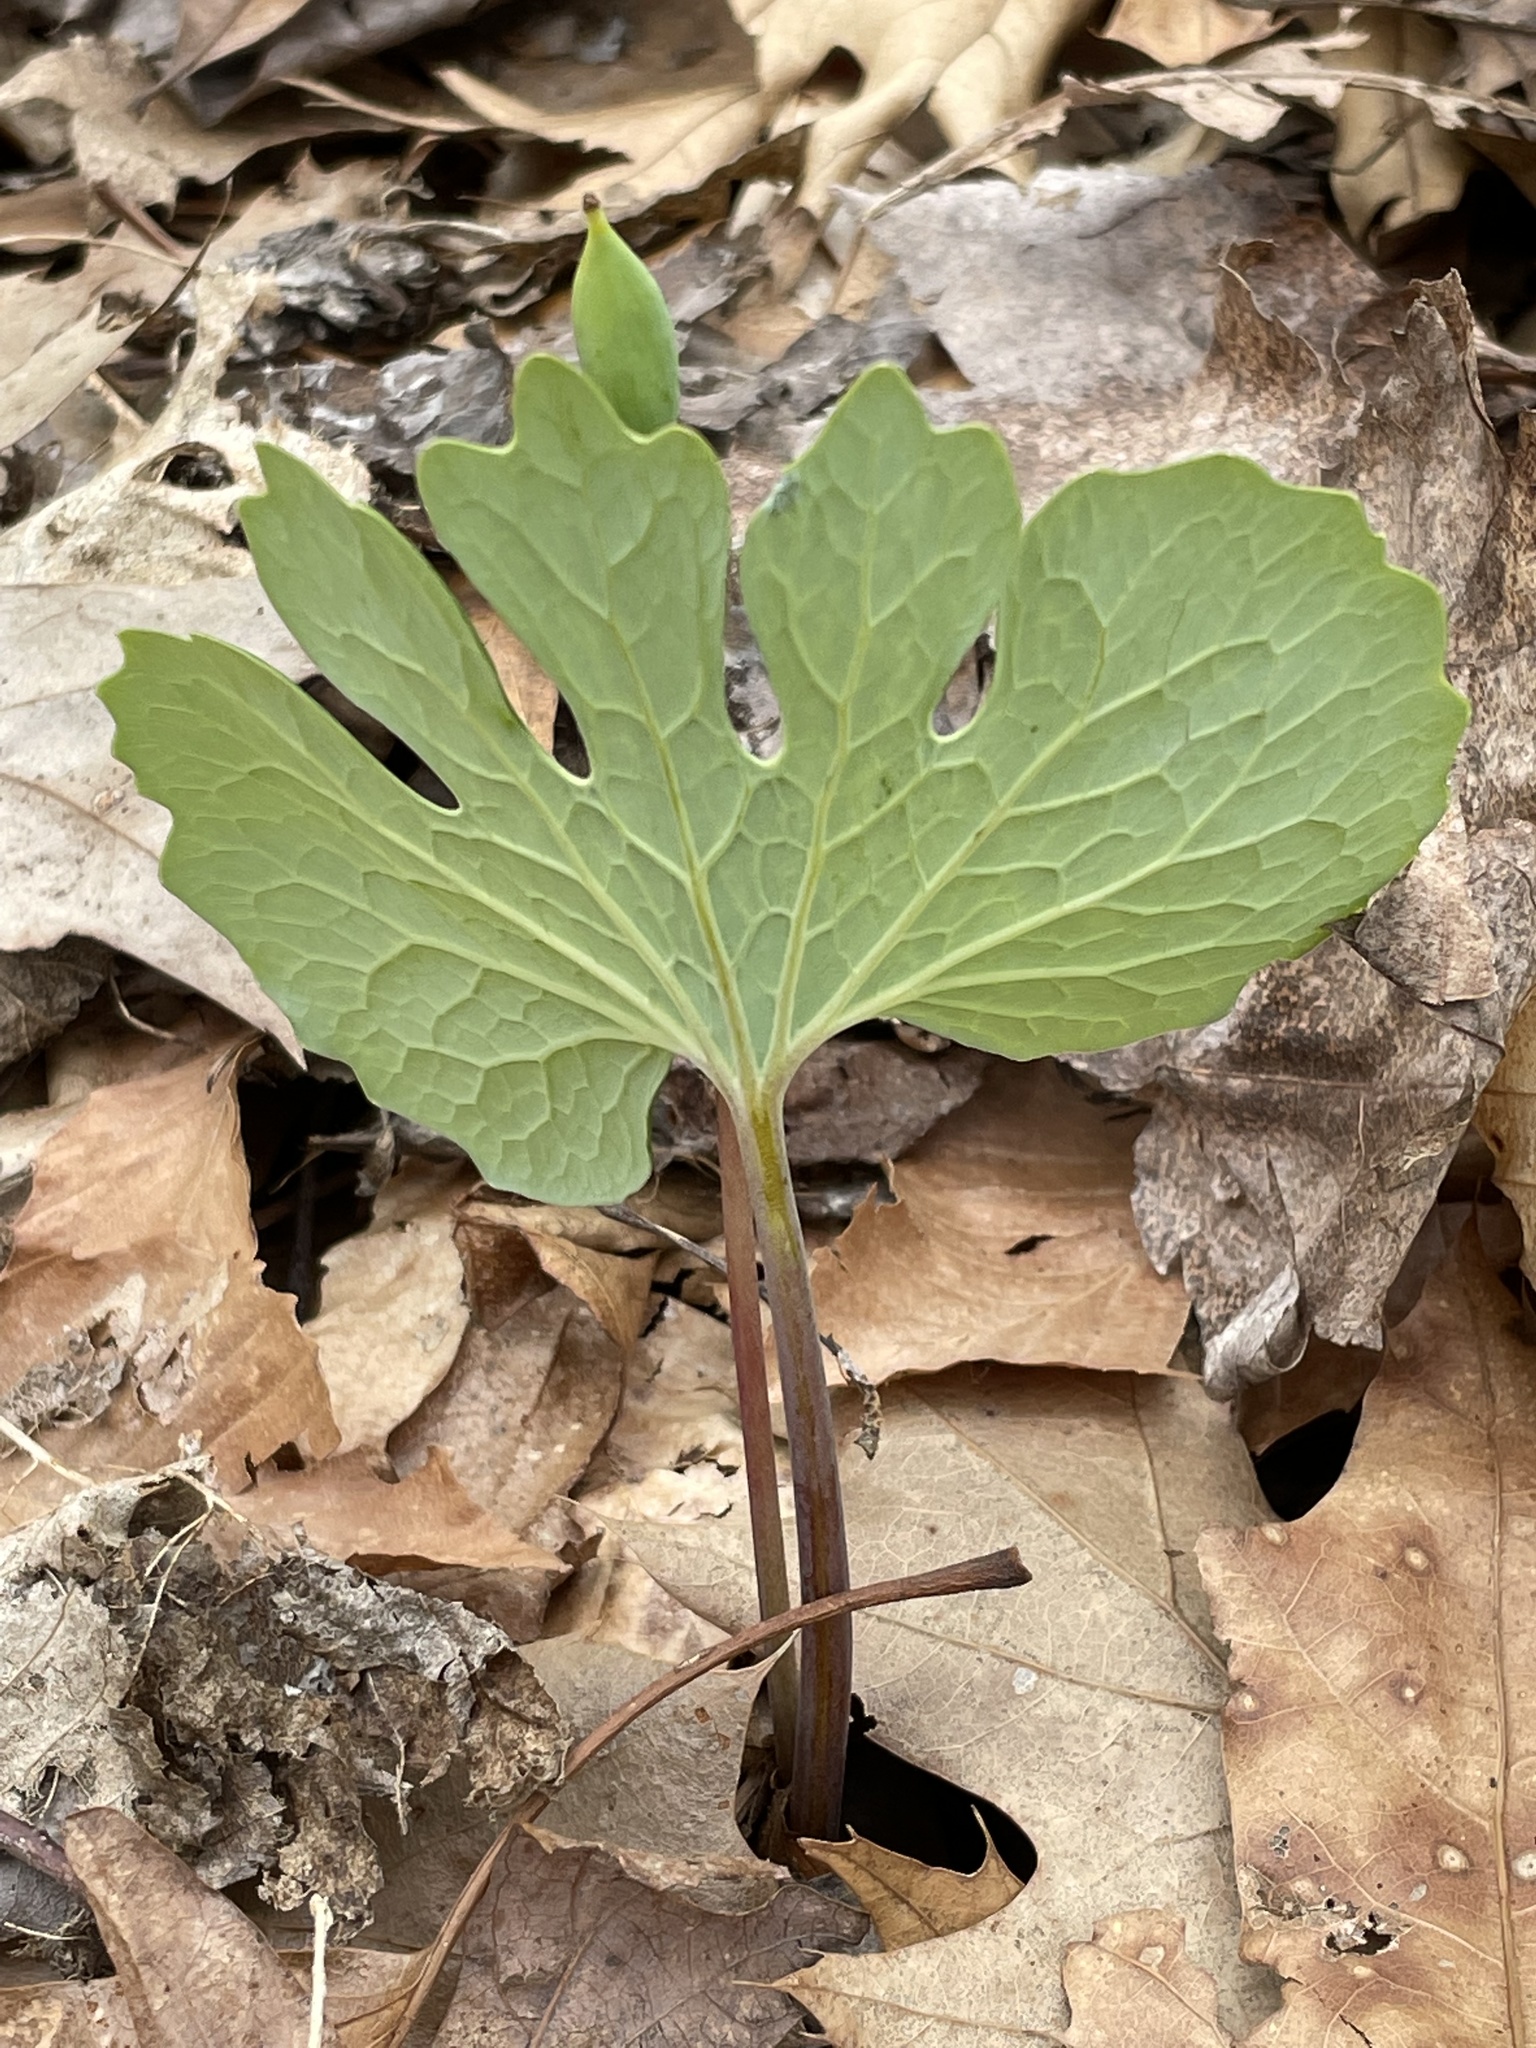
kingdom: Plantae
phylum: Tracheophyta
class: Magnoliopsida
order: Ranunculales
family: Papaveraceae
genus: Sanguinaria
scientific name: Sanguinaria canadensis
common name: Bloodroot
